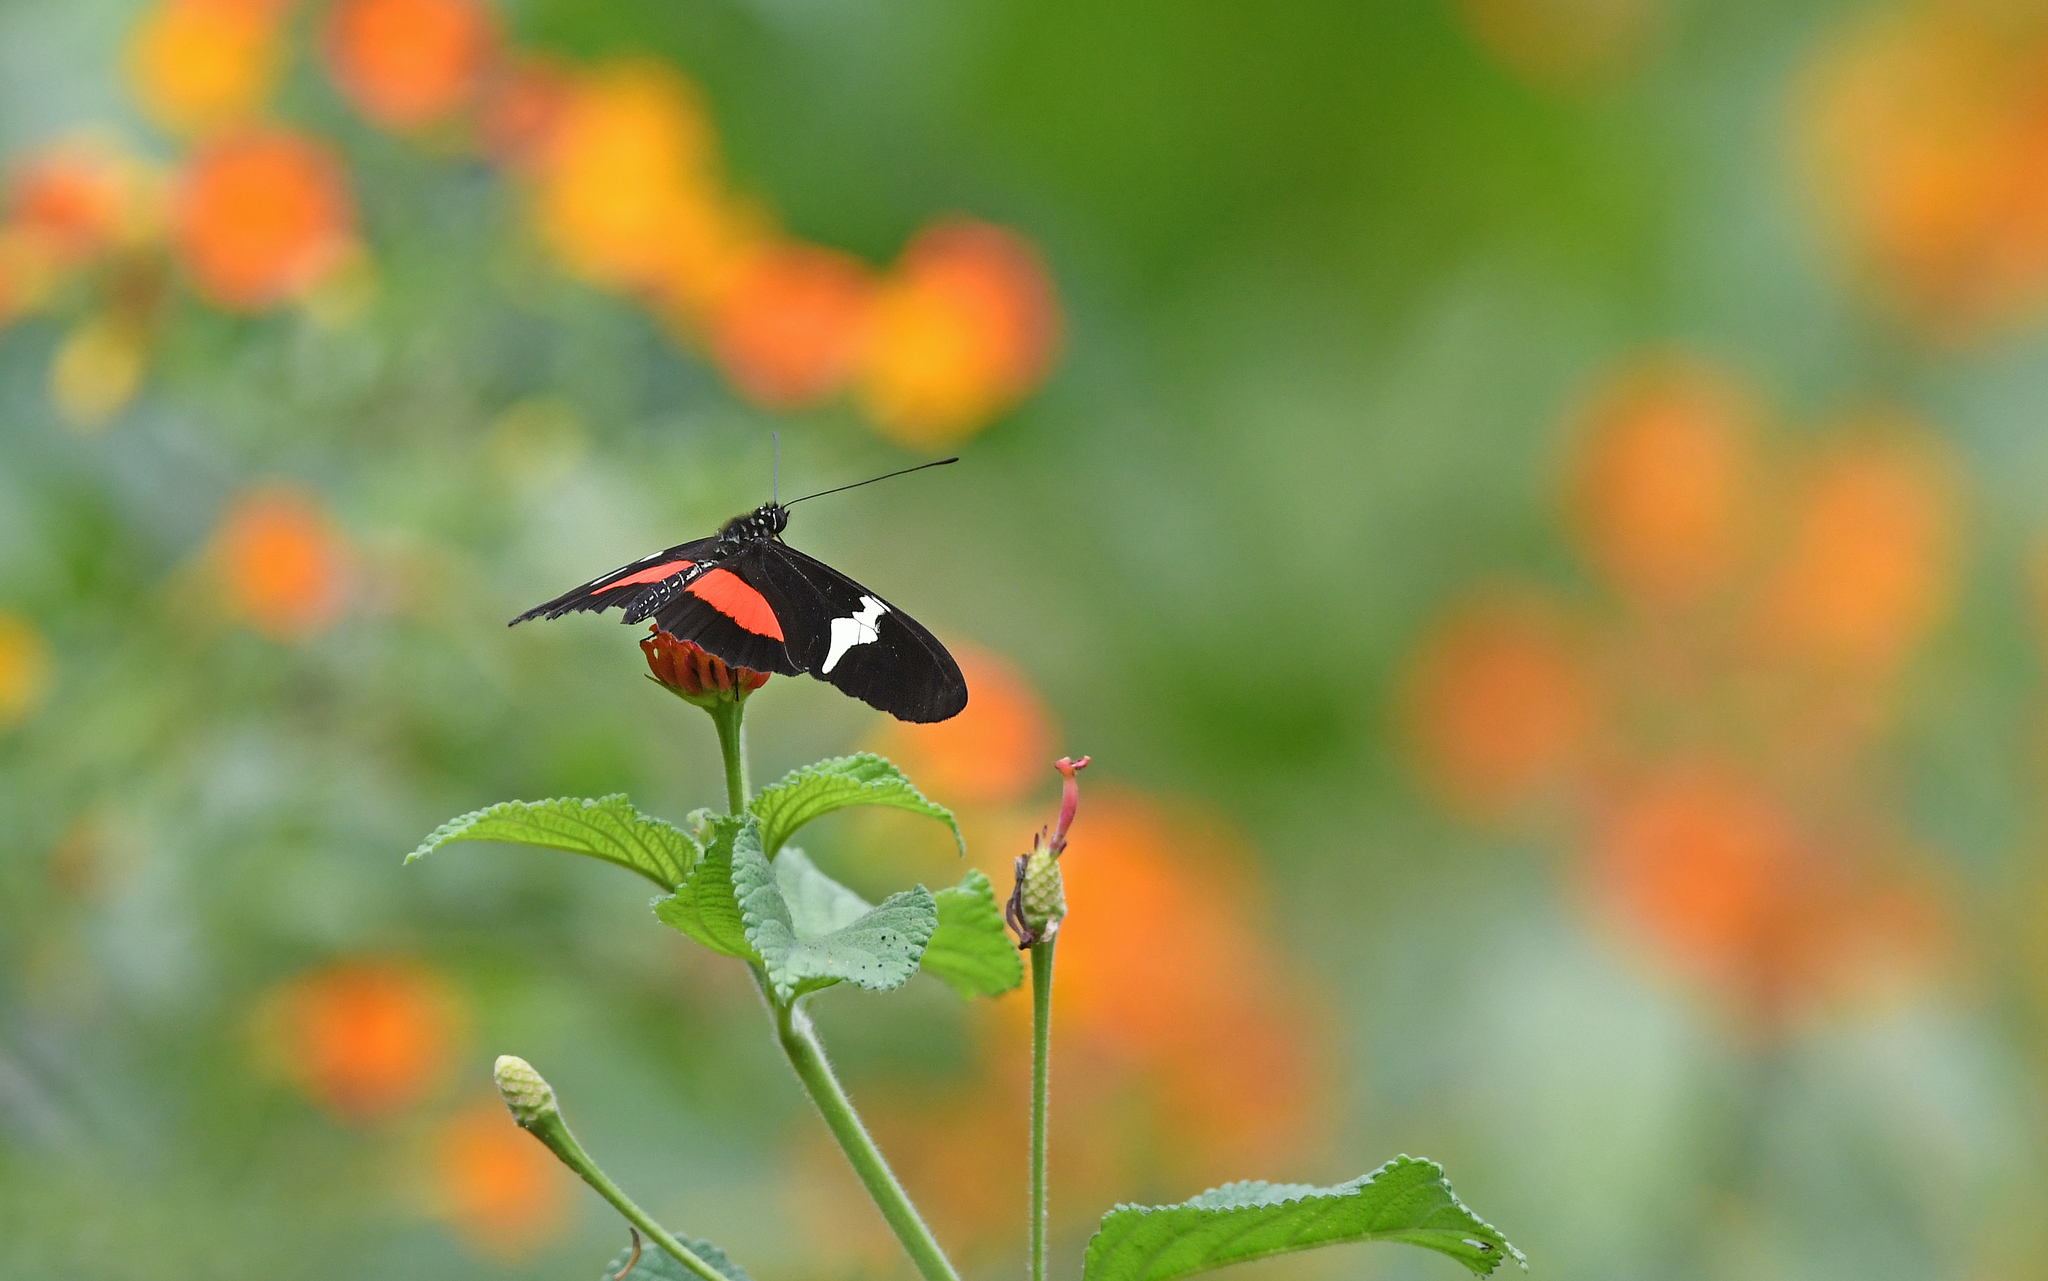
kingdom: Animalia
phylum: Arthropoda
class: Insecta
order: Lepidoptera
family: Nymphalidae
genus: Heliconius
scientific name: Heliconius clysonymus
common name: Clysonymus longwing
